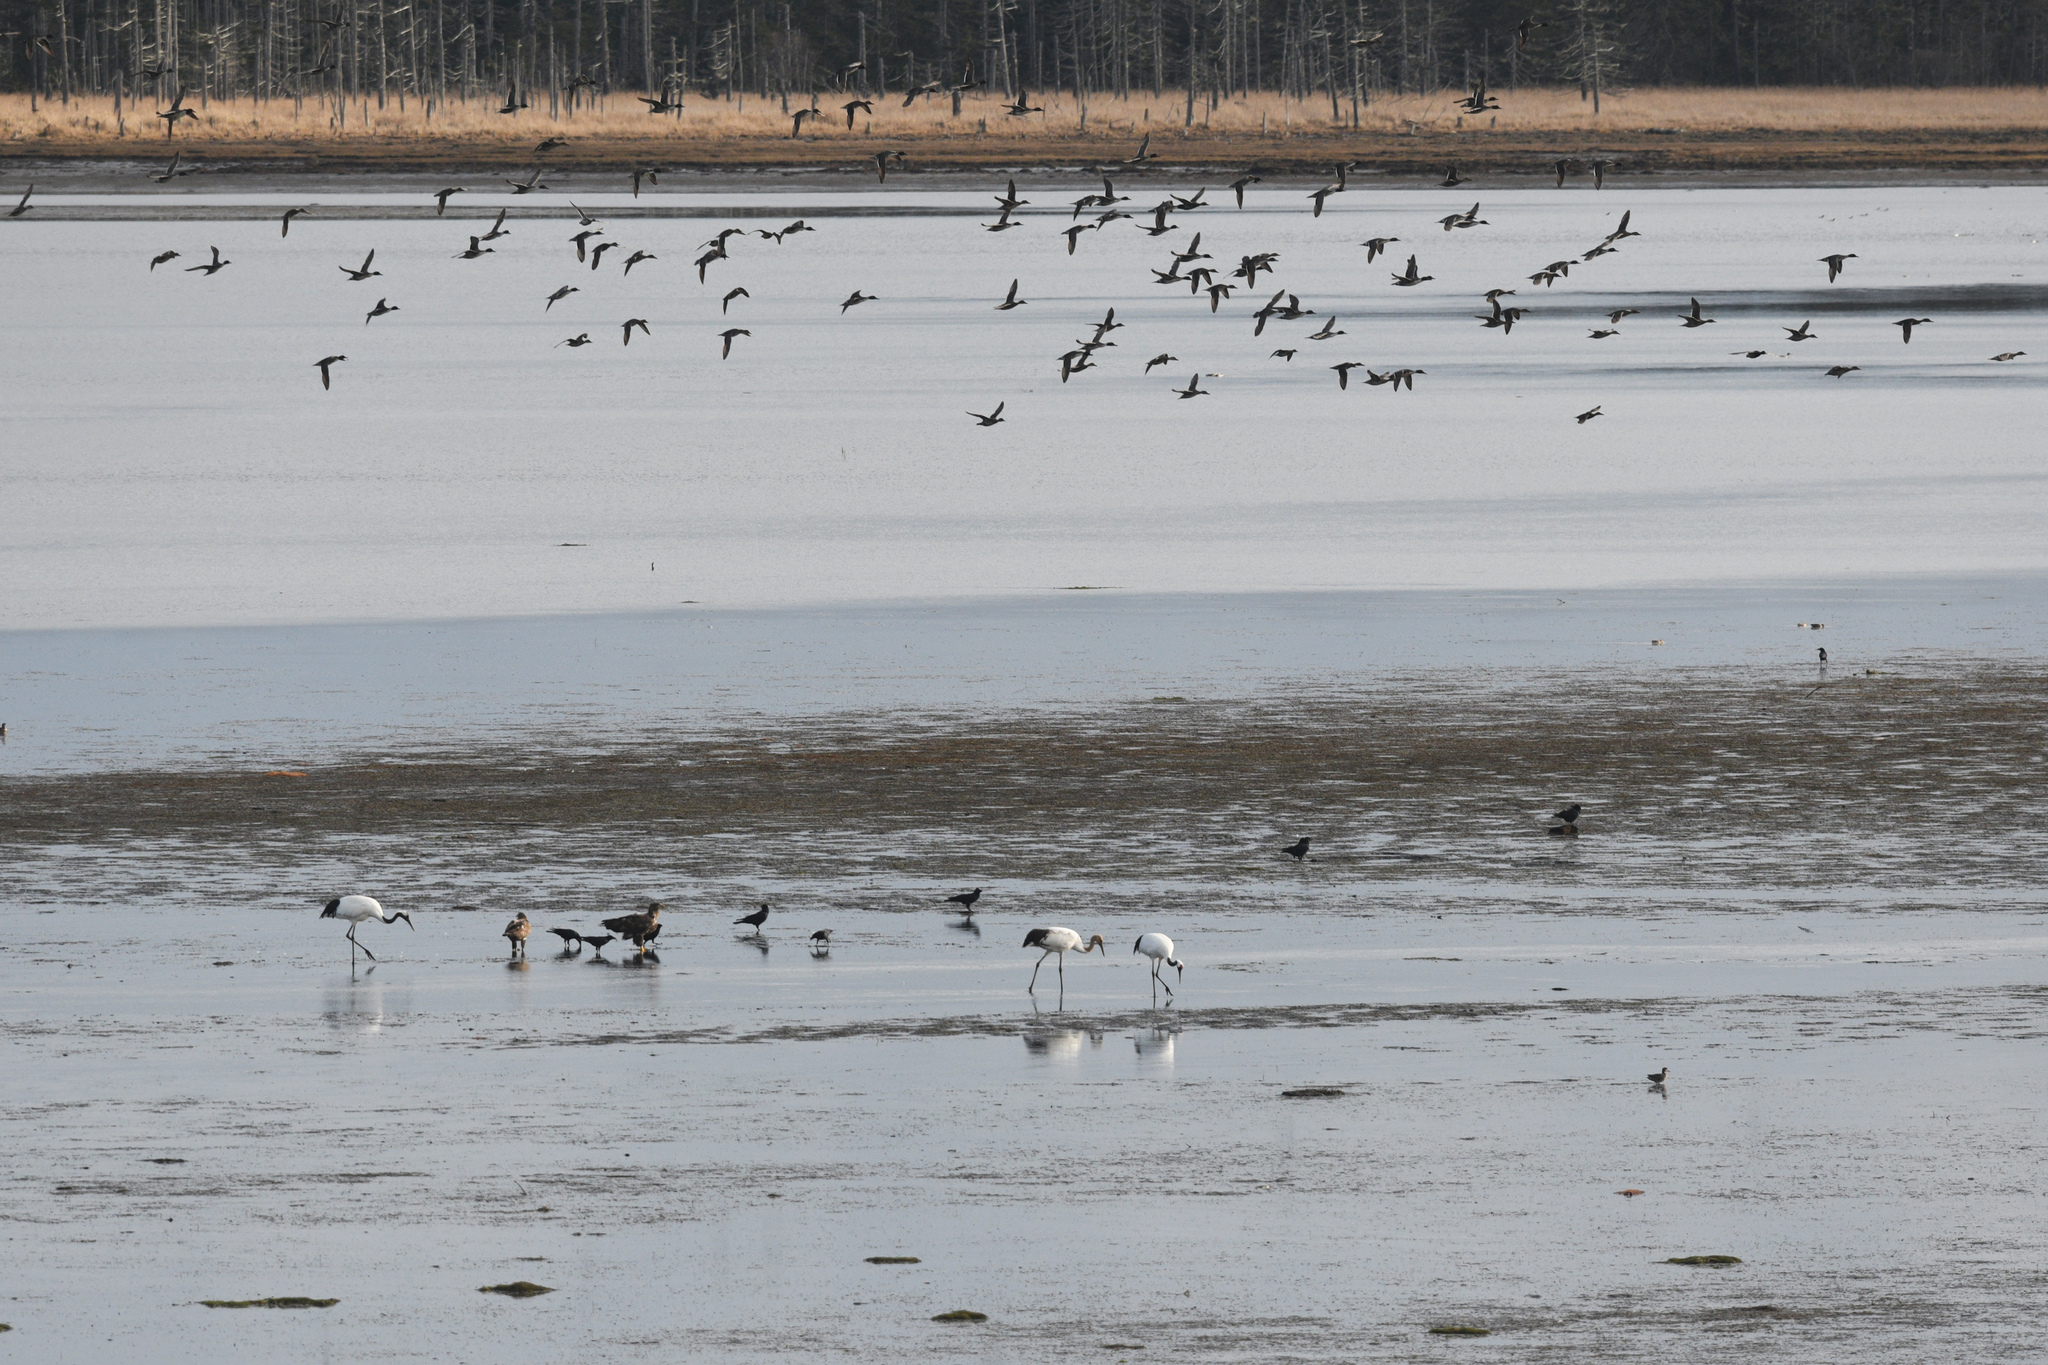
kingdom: Animalia
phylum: Chordata
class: Aves
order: Gruiformes
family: Gruidae
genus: Grus
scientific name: Grus japonensis
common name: Red-crowned crane
